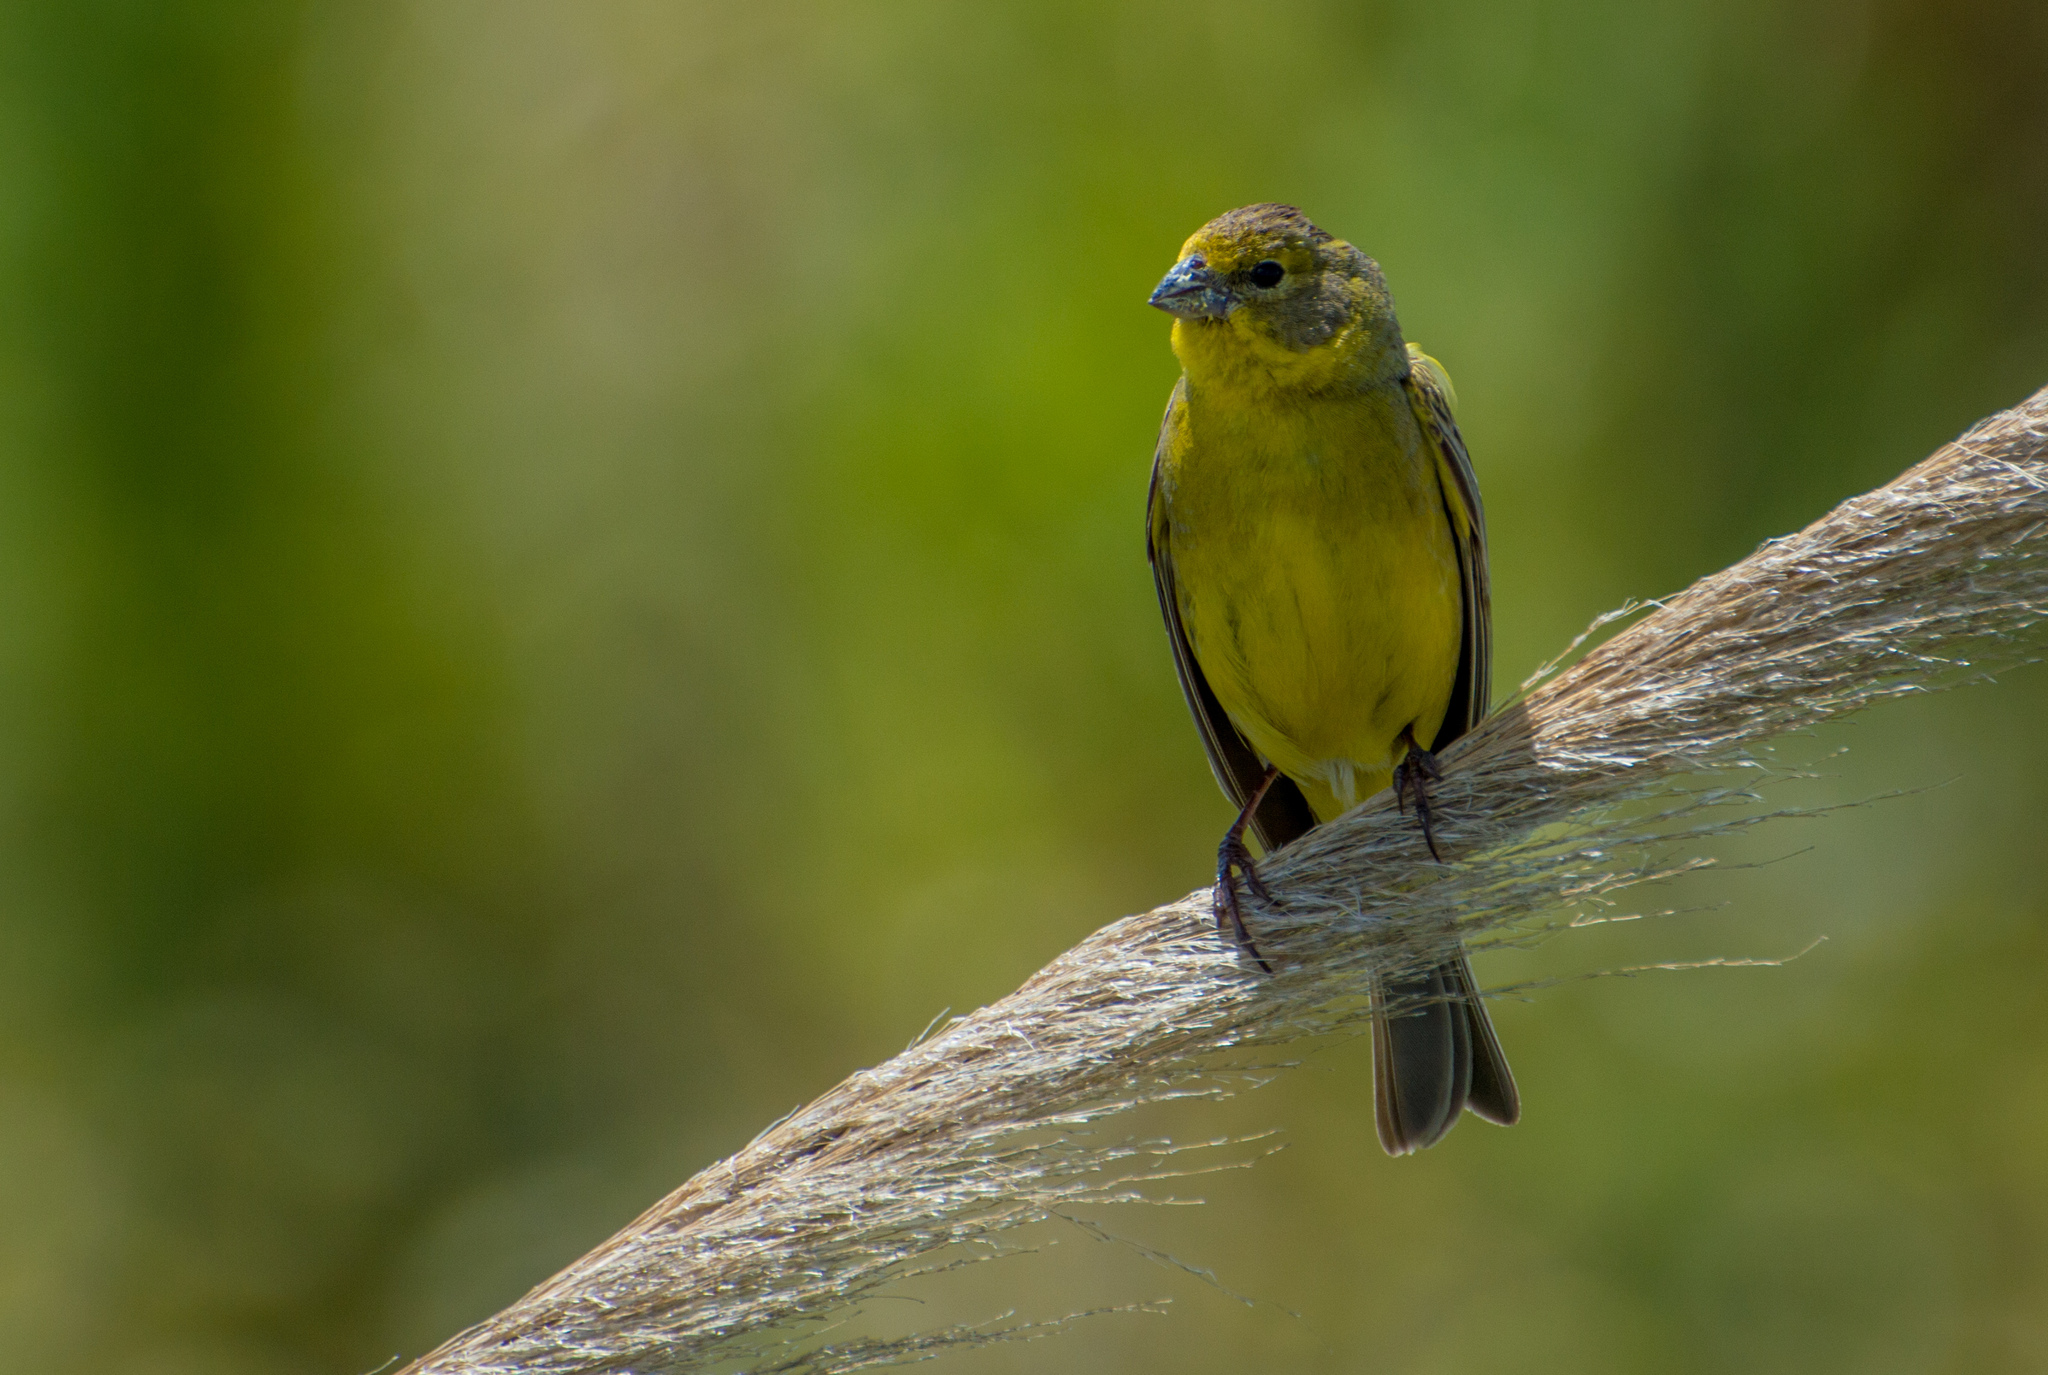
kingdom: Animalia
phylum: Chordata
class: Aves
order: Passeriformes
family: Thraupidae
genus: Sicalis
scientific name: Sicalis luteola
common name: Grassland yellow-finch
